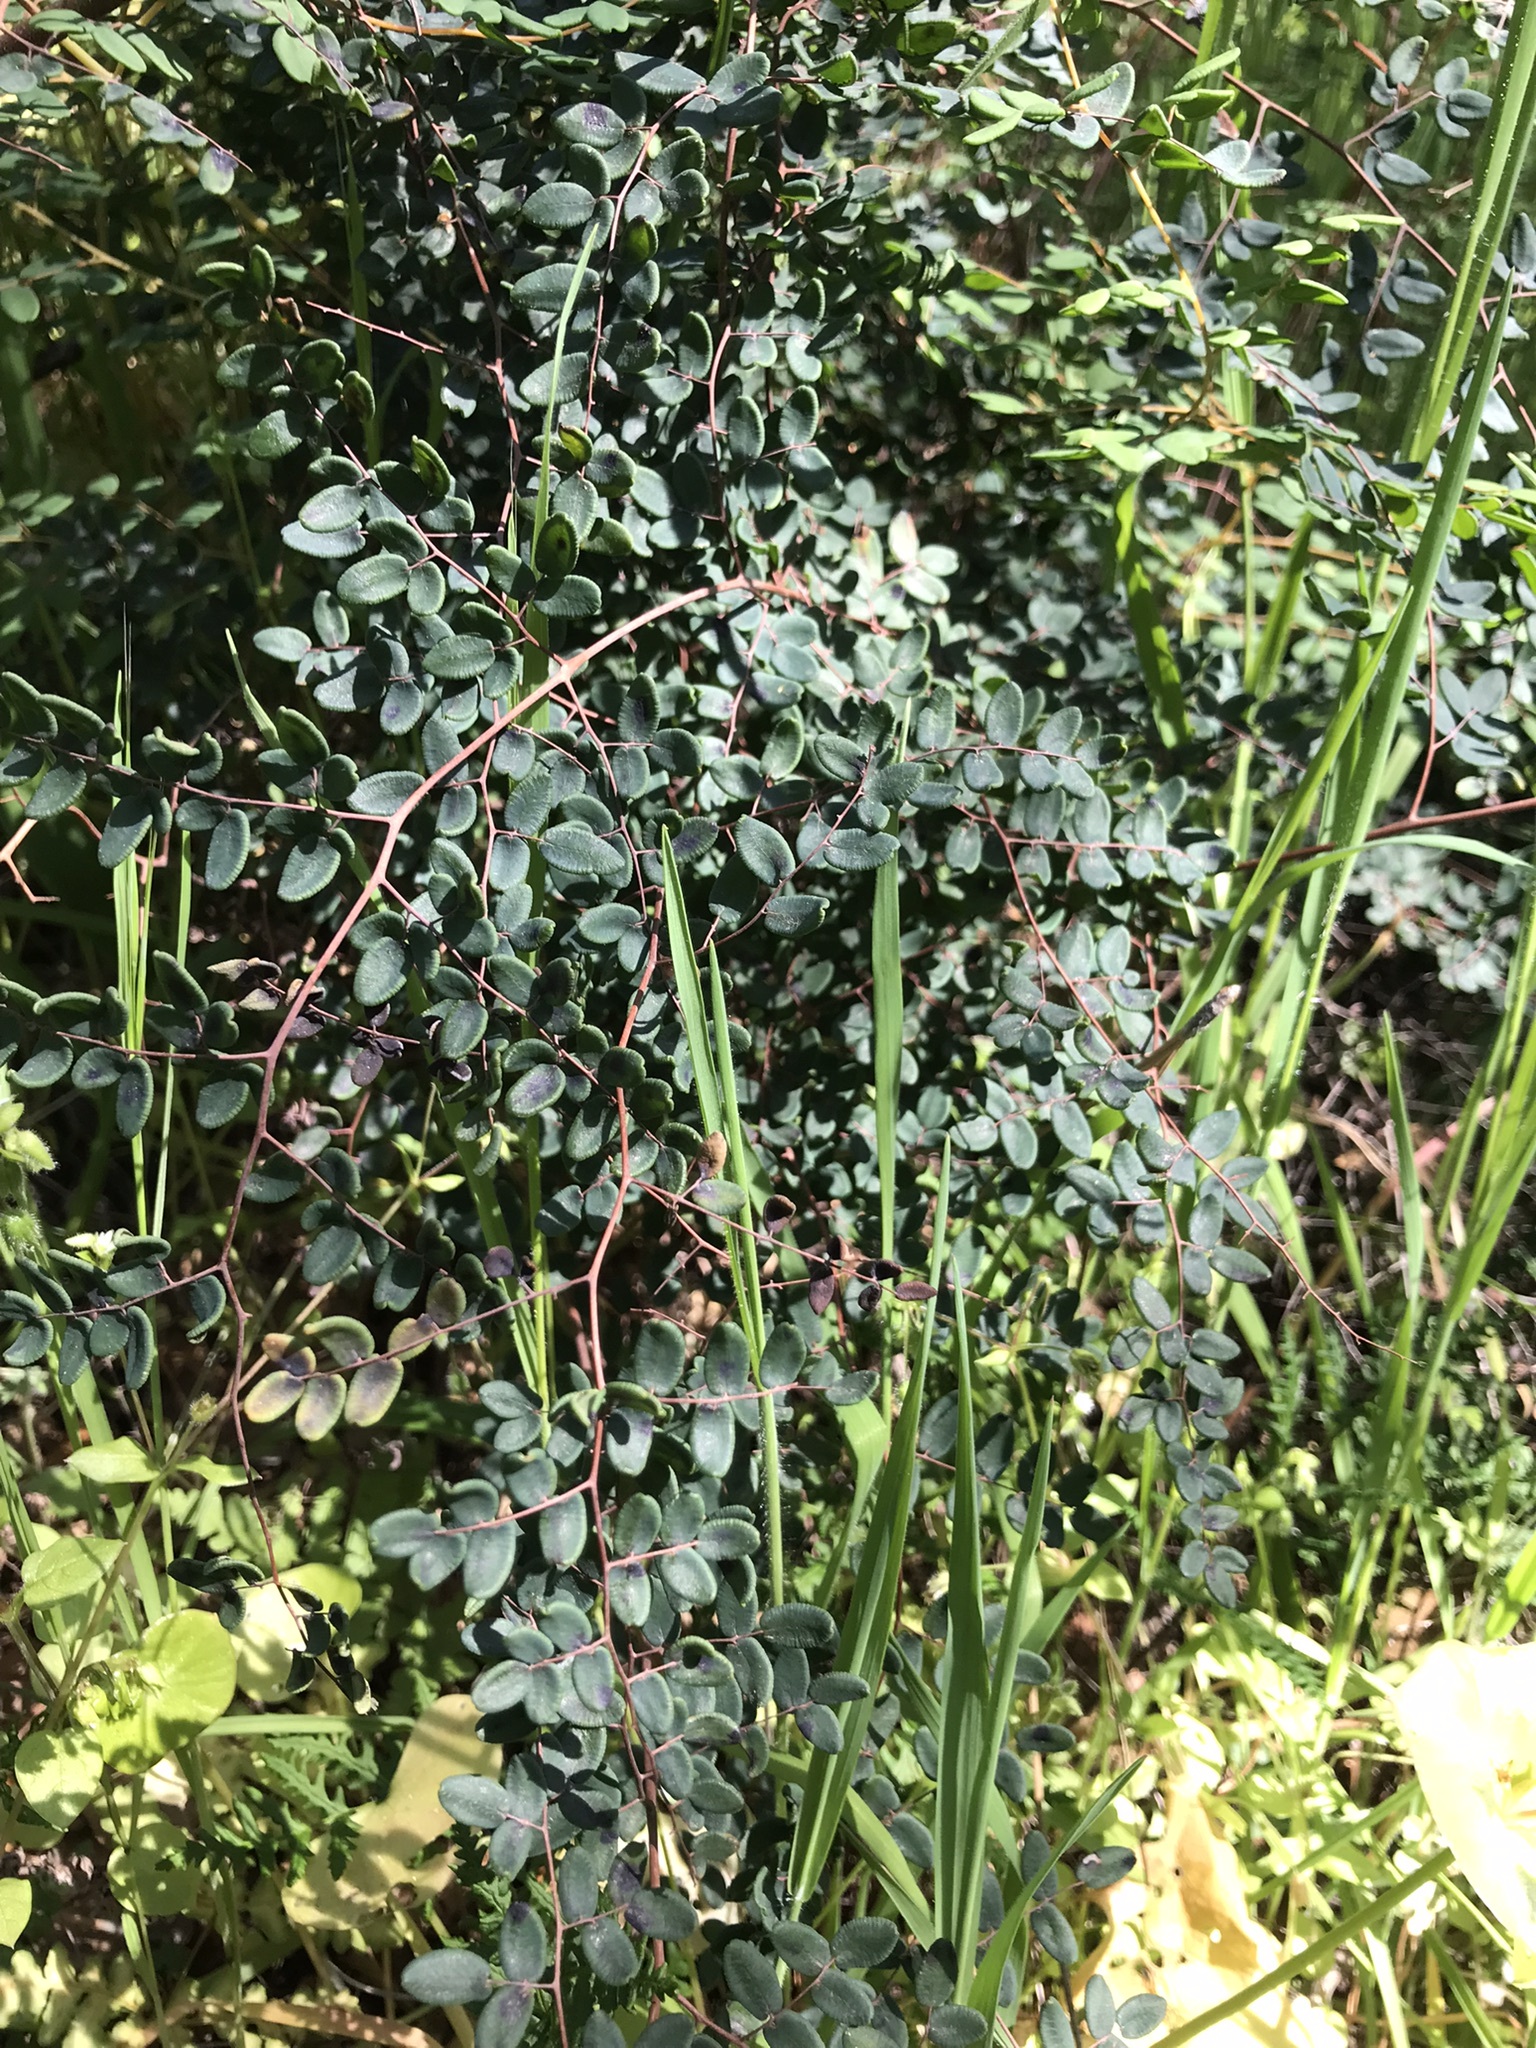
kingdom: Plantae
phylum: Tracheophyta
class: Polypodiopsida
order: Polypodiales
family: Pteridaceae
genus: Pellaea
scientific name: Pellaea andromedifolia
